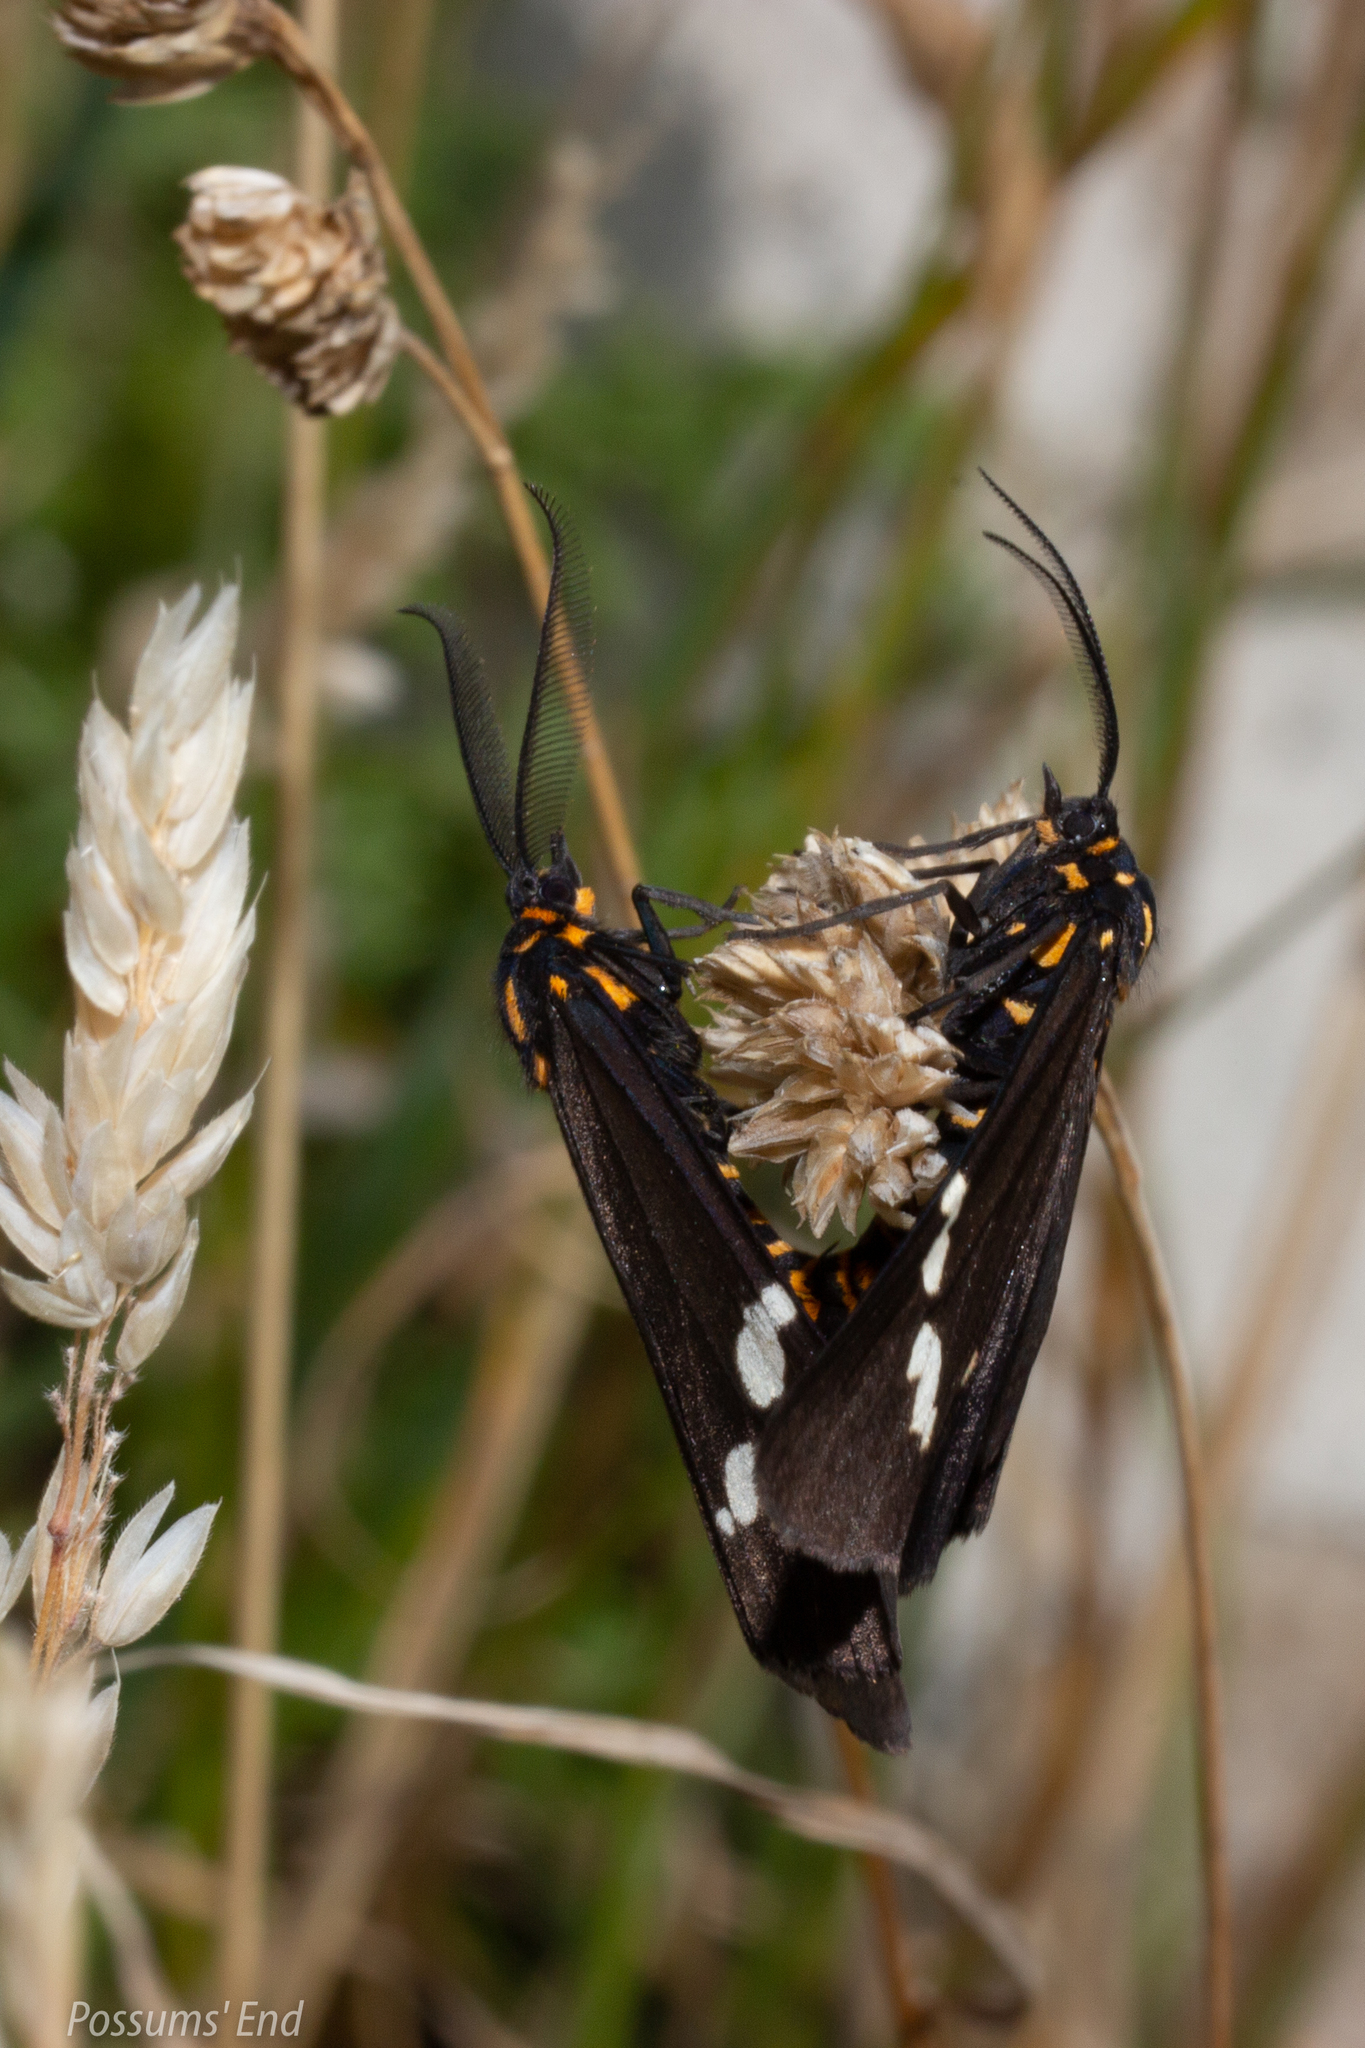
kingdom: Animalia
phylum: Arthropoda
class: Insecta
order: Lepidoptera
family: Erebidae
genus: Nyctemera
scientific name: Nyctemera annulatum
